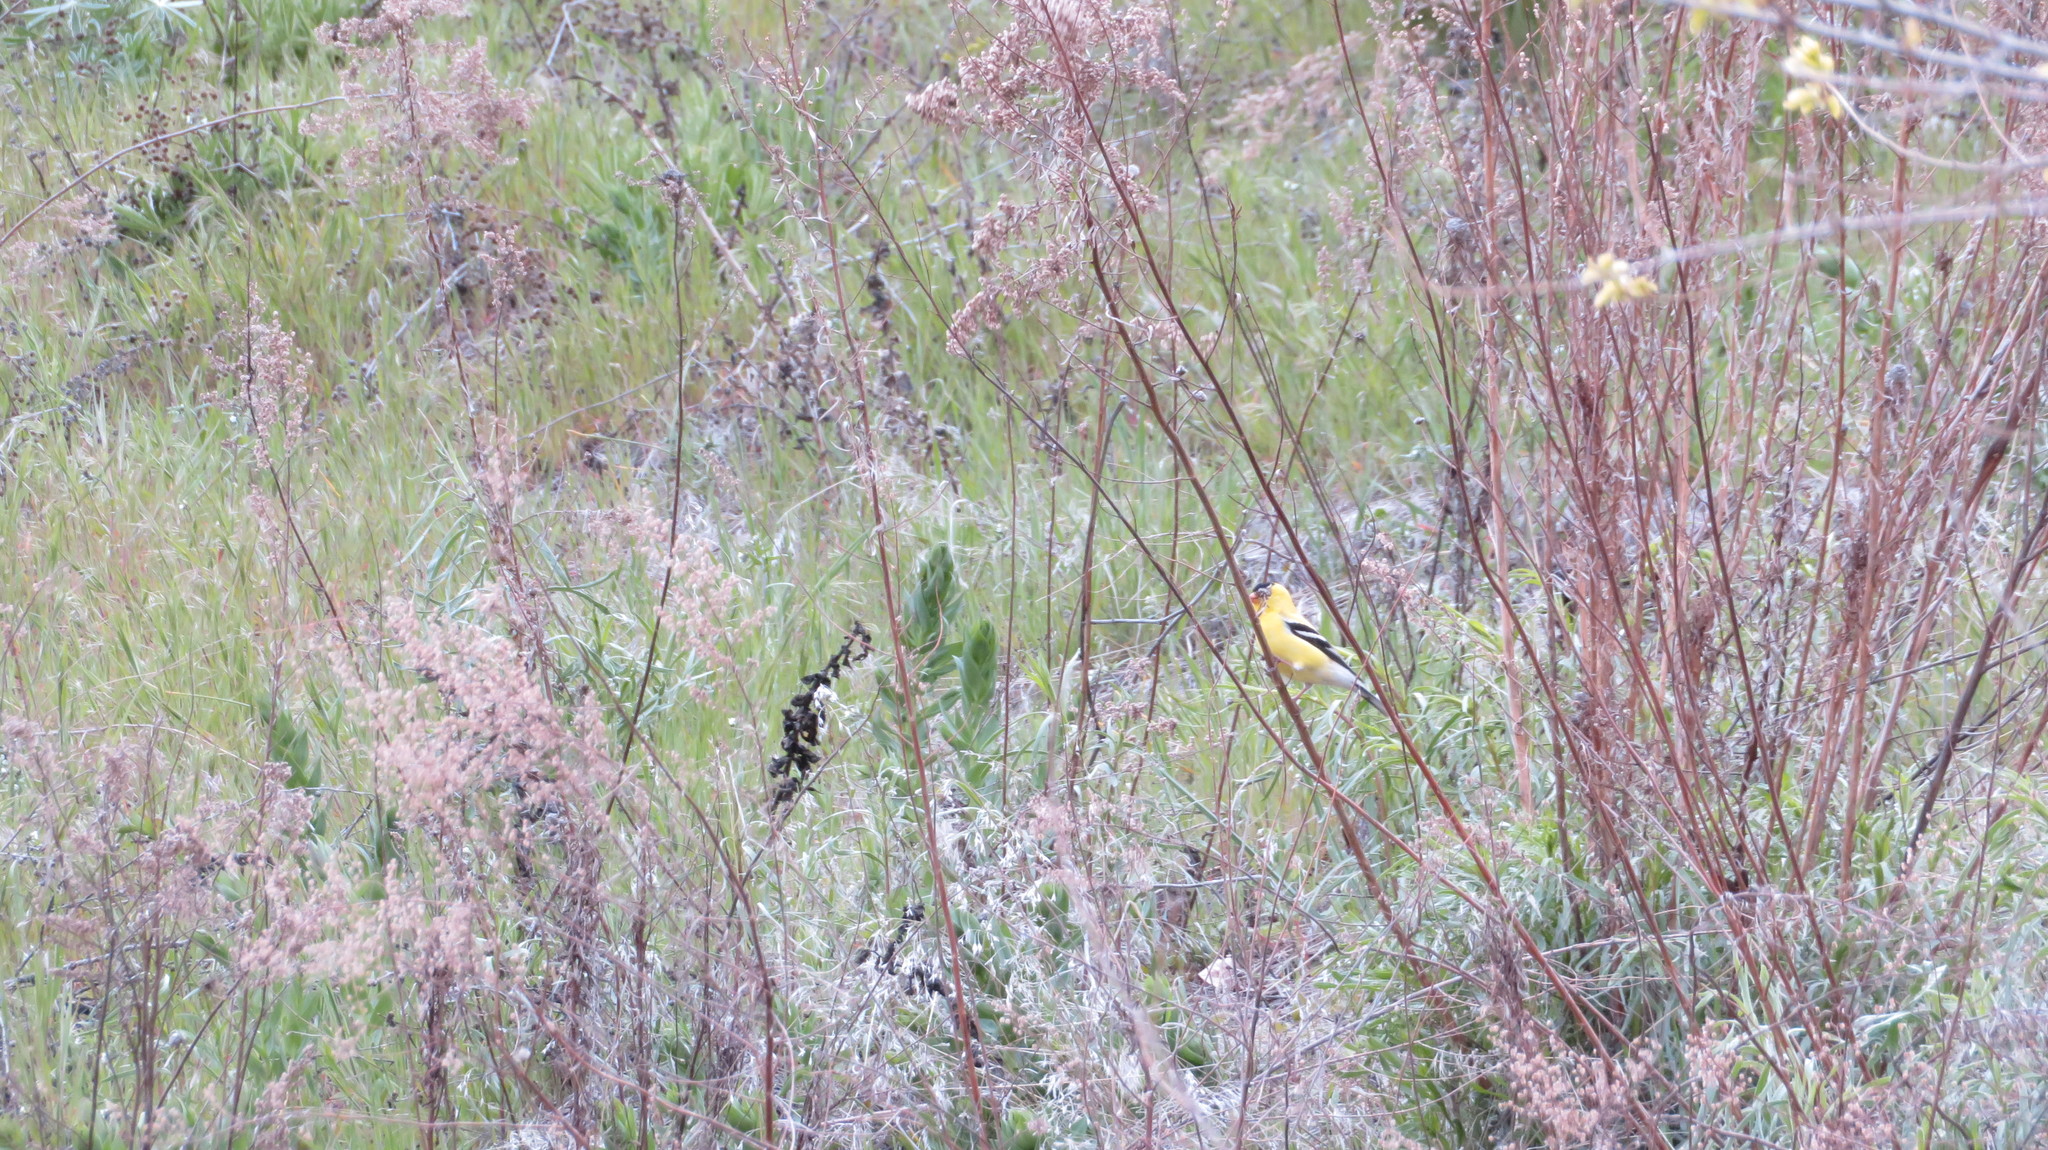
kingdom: Animalia
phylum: Chordata
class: Aves
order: Passeriformes
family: Fringillidae
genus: Spinus
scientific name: Spinus tristis
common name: American goldfinch
